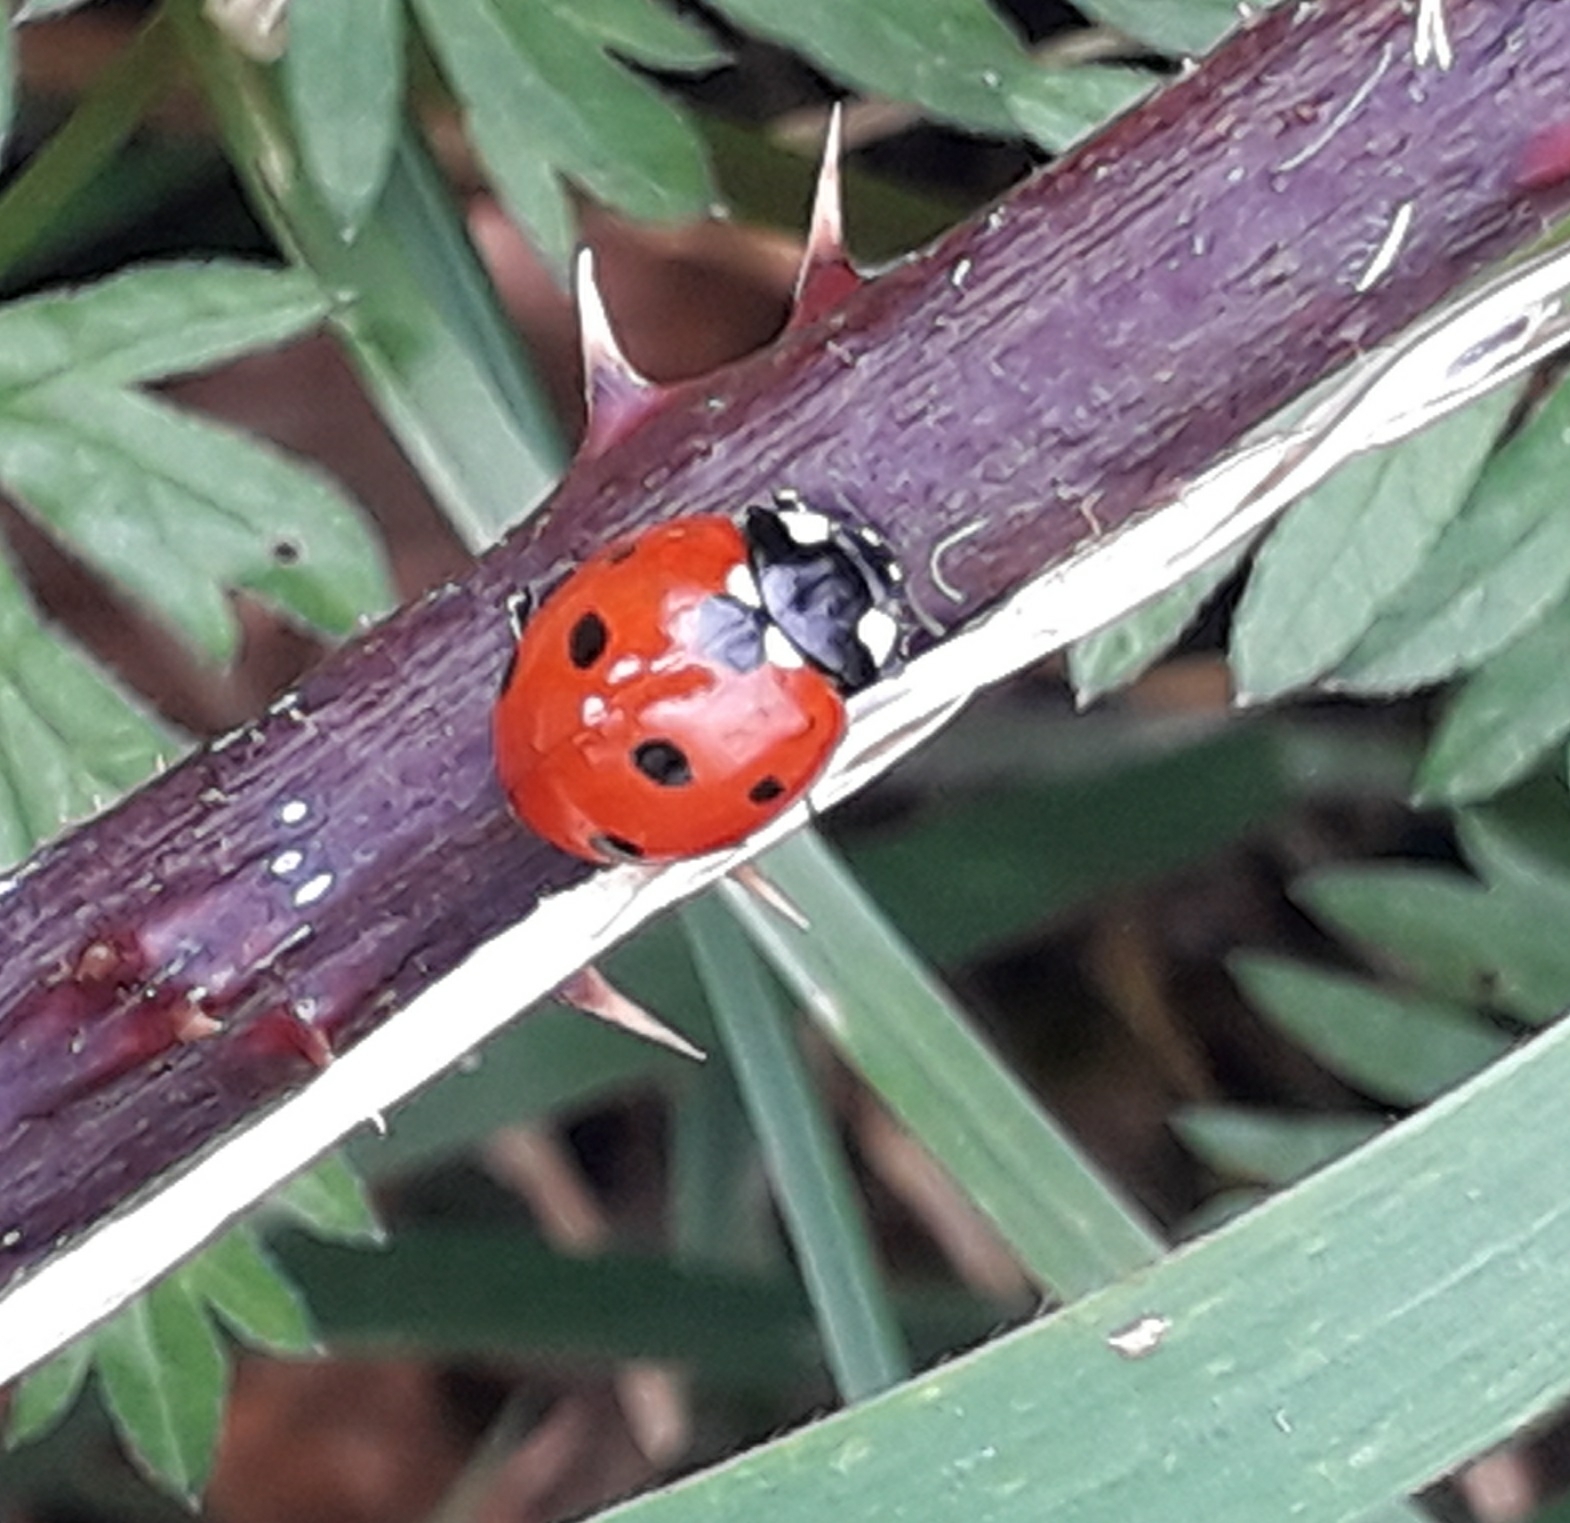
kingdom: Animalia
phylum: Arthropoda
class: Insecta
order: Coleoptera
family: Coccinellidae
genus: Coccinella
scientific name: Coccinella septempunctata
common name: Sevenspotted lady beetle
